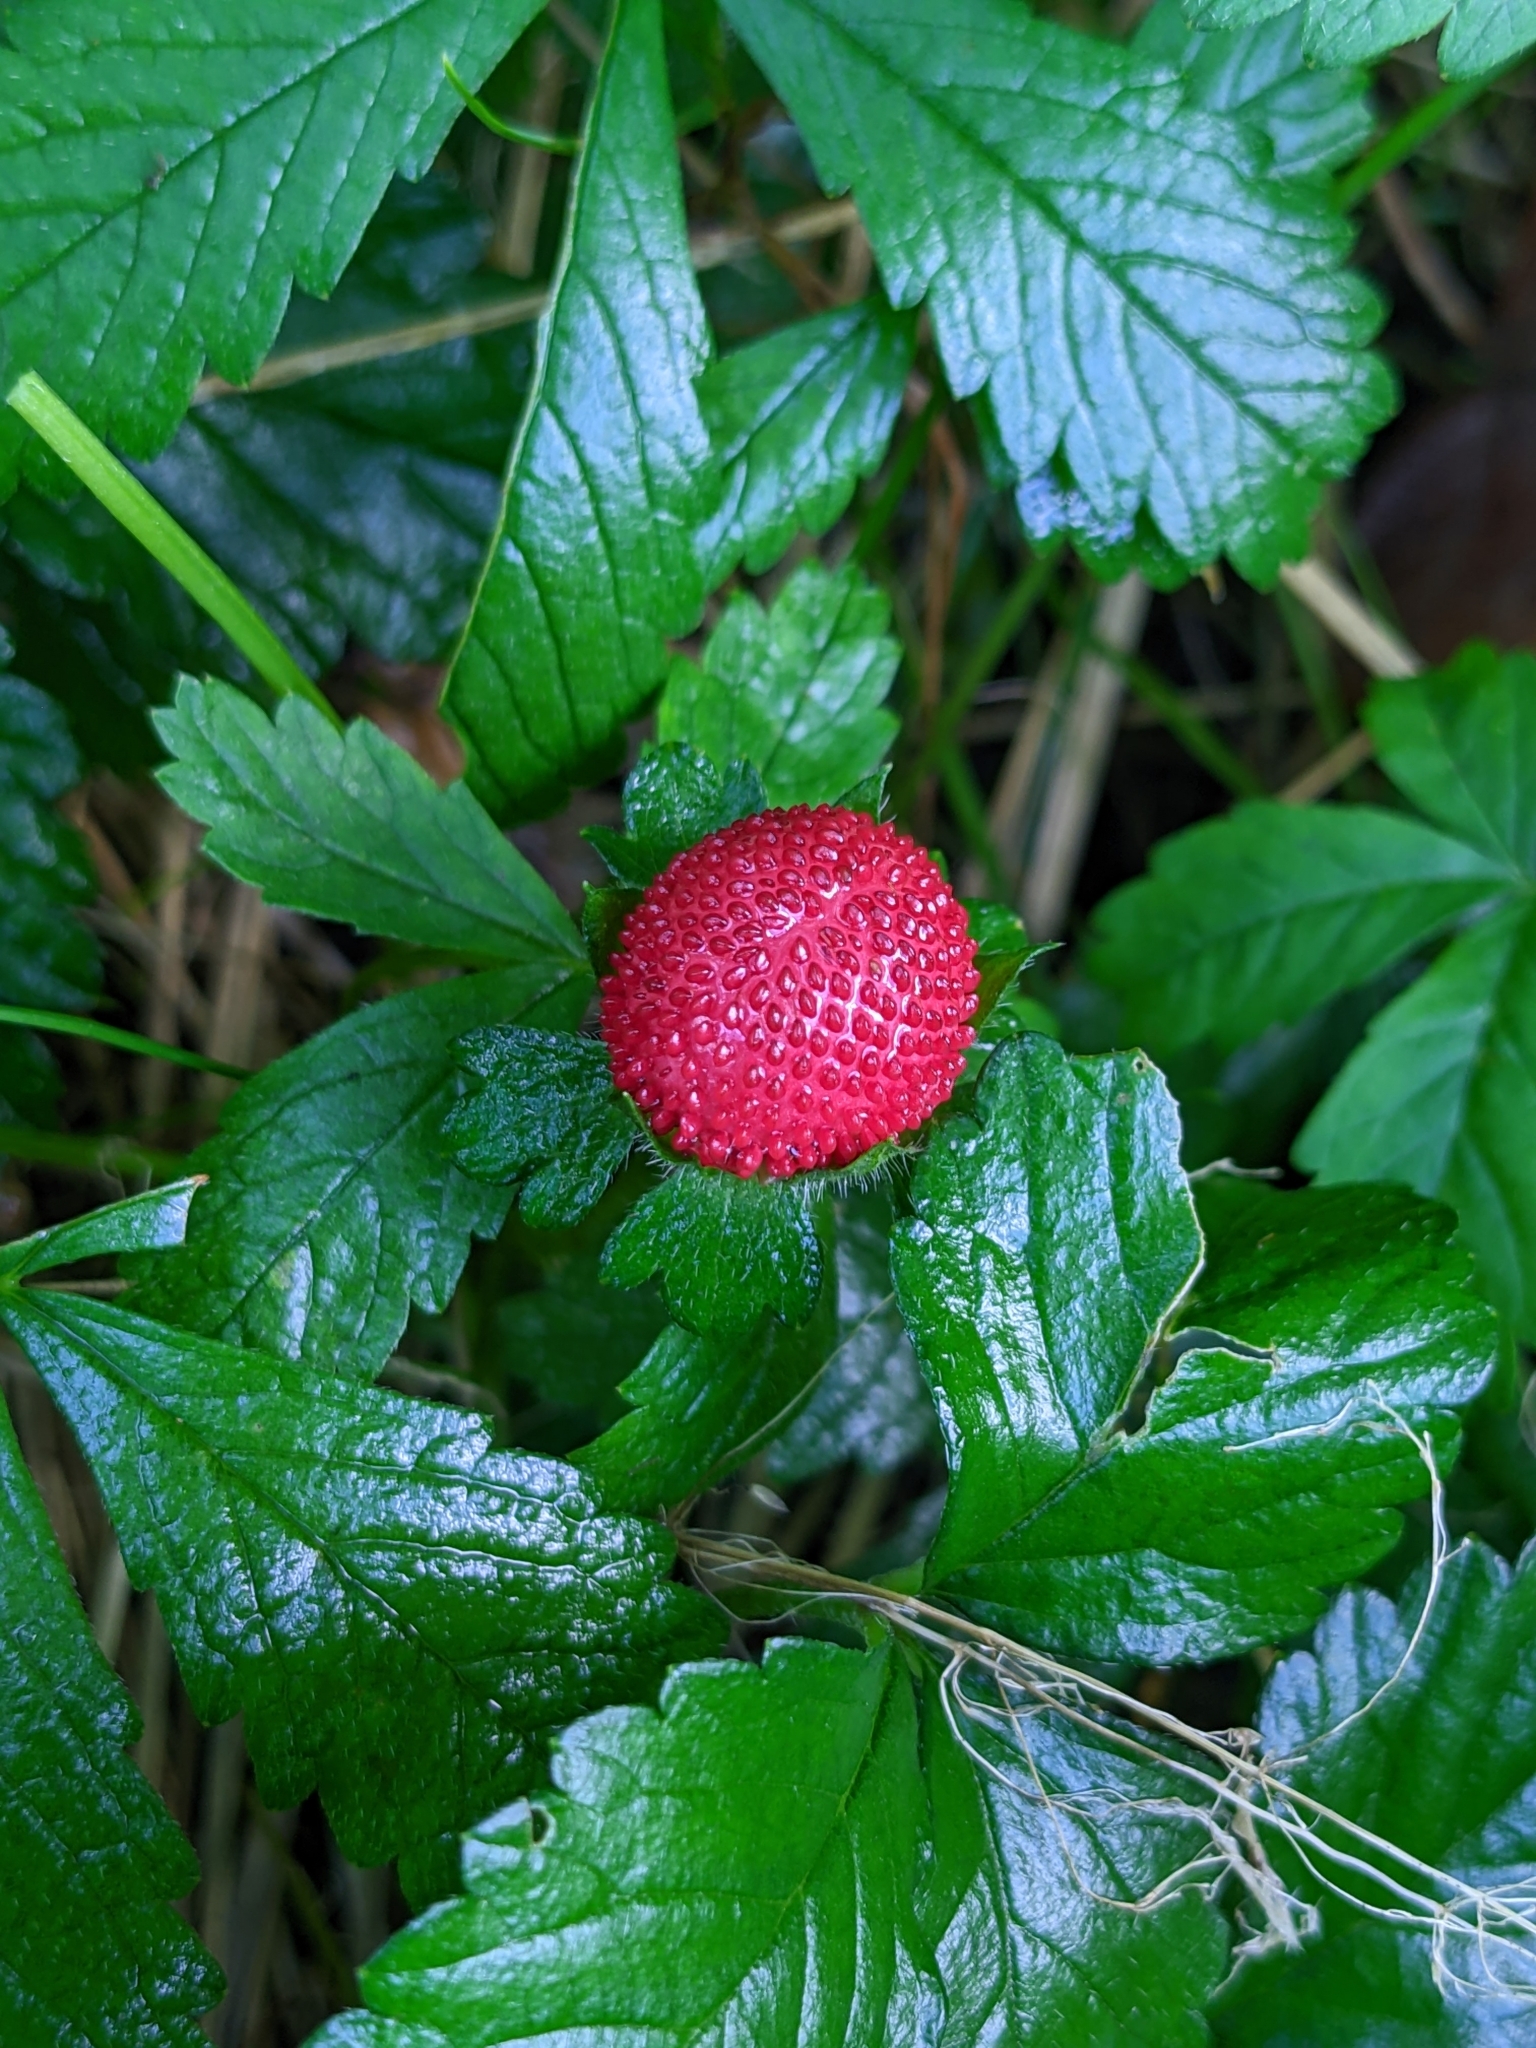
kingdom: Plantae
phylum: Tracheophyta
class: Magnoliopsida
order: Rosales
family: Rosaceae
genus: Potentilla
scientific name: Potentilla indica
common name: Yellow-flowered strawberry
